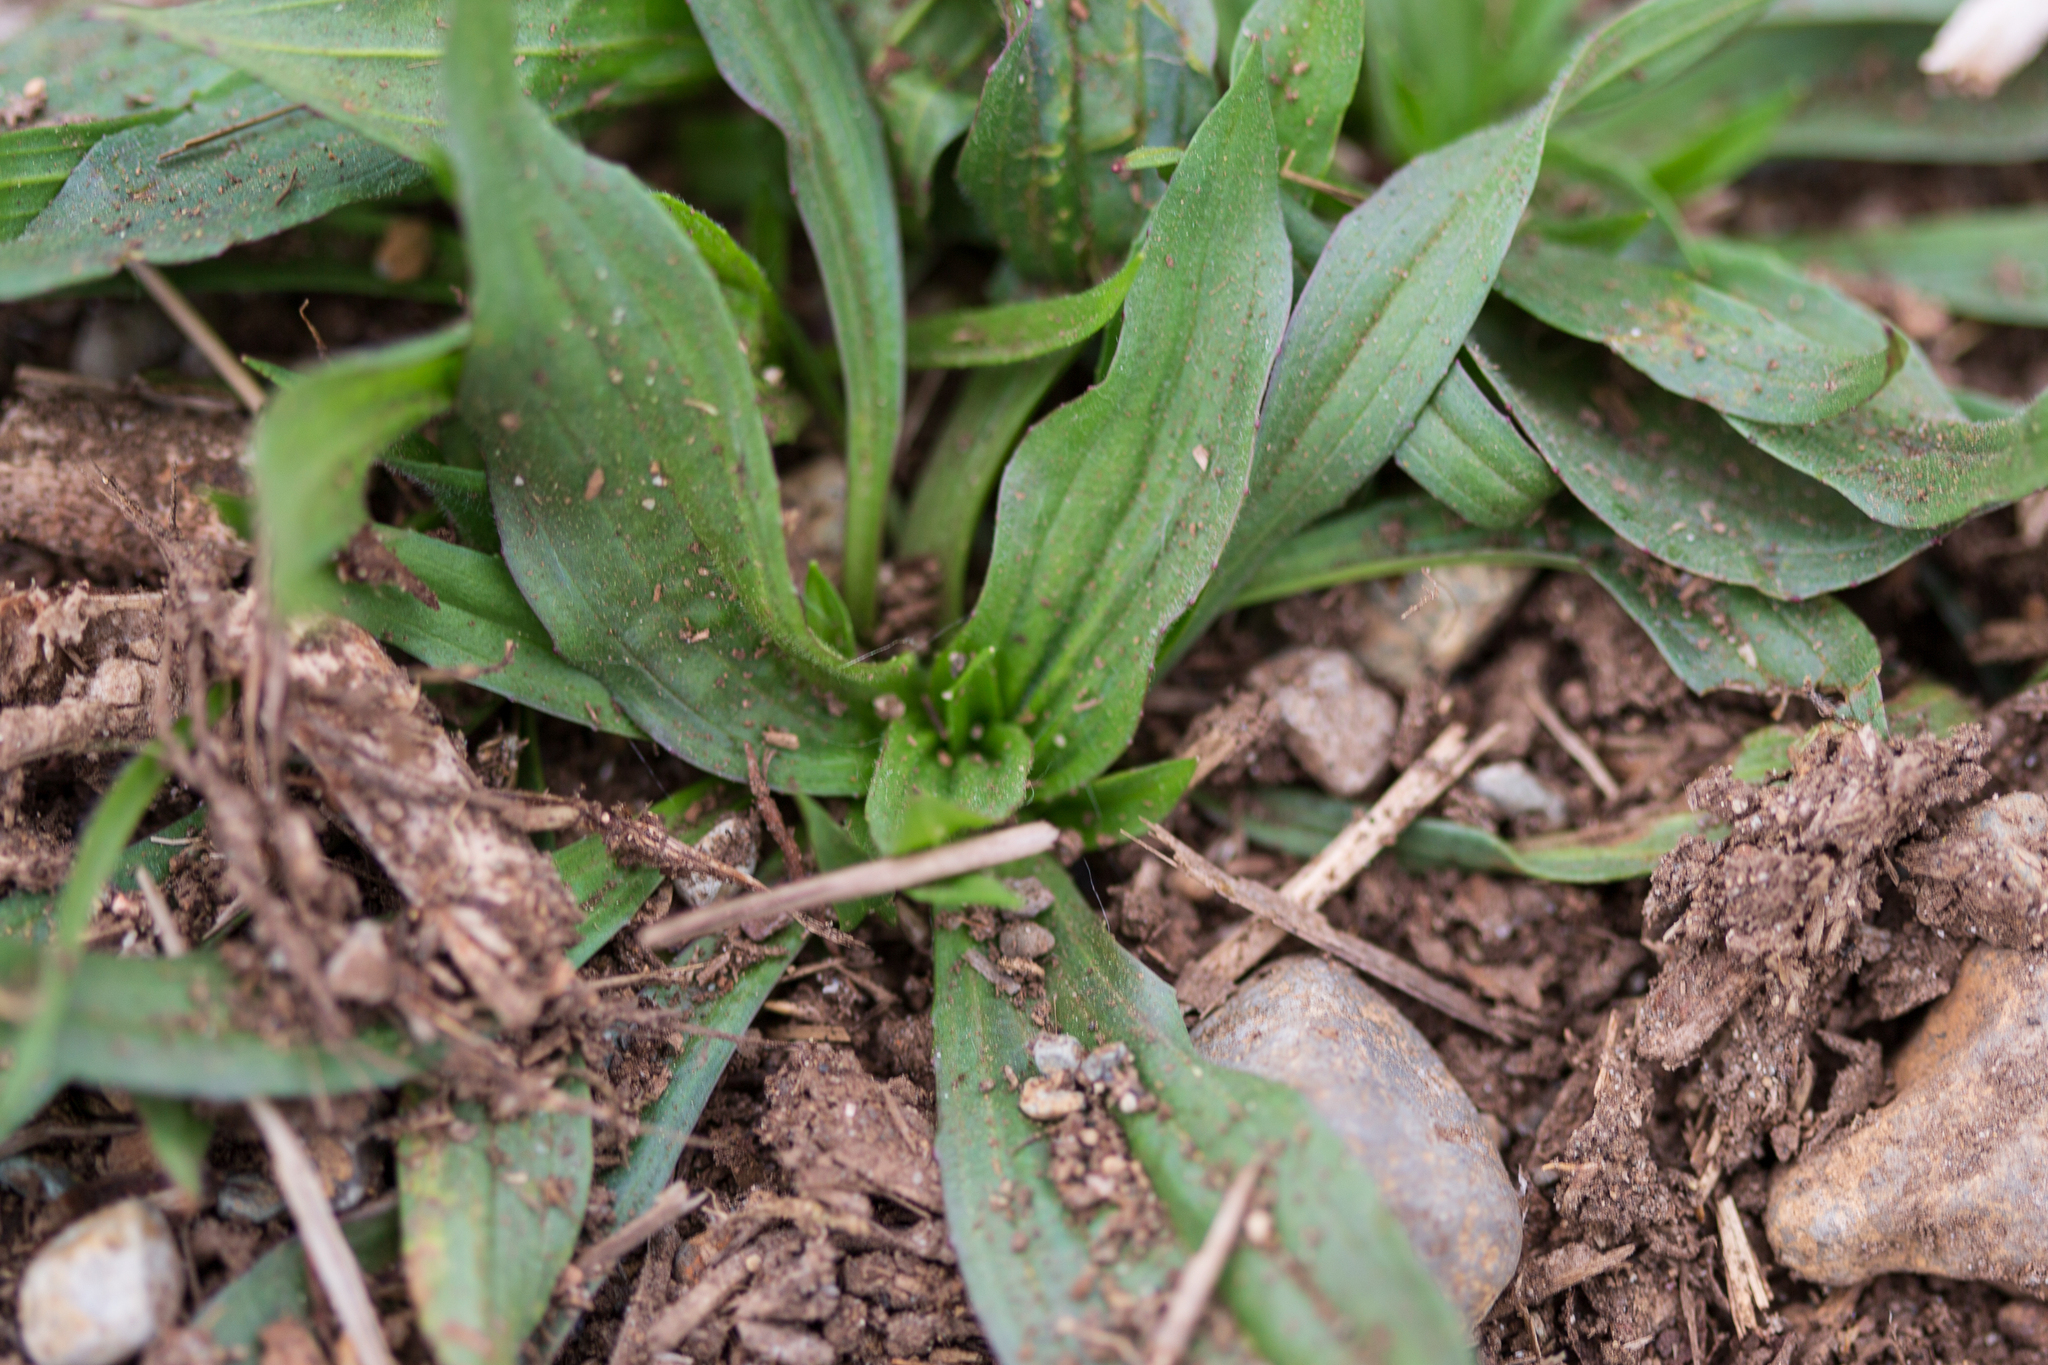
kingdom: Plantae
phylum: Tracheophyta
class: Magnoliopsida
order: Lamiales
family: Plantaginaceae
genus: Plantago
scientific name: Plantago lanceolata
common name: Ribwort plantain
